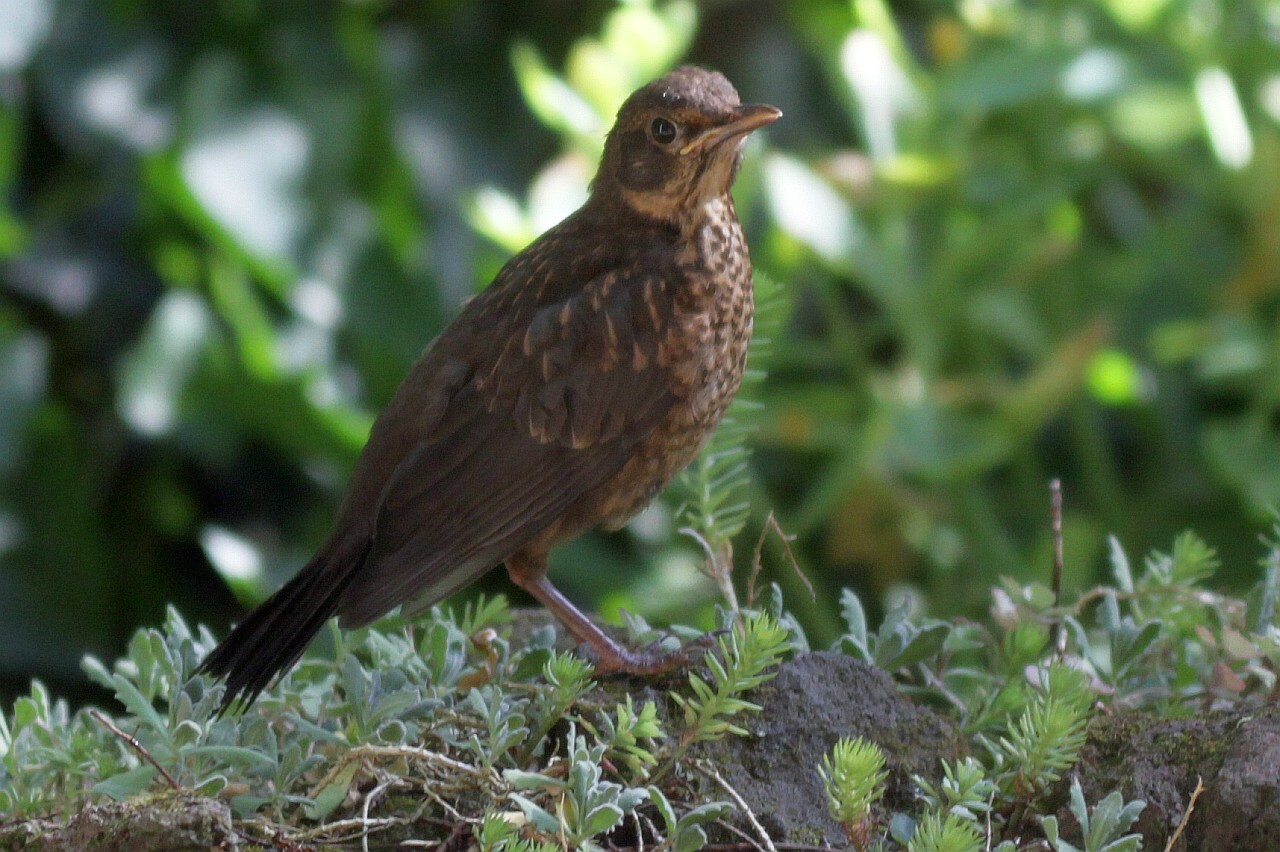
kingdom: Animalia
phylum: Chordata
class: Aves
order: Passeriformes
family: Turdidae
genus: Turdus
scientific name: Turdus merula
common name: Common blackbird
